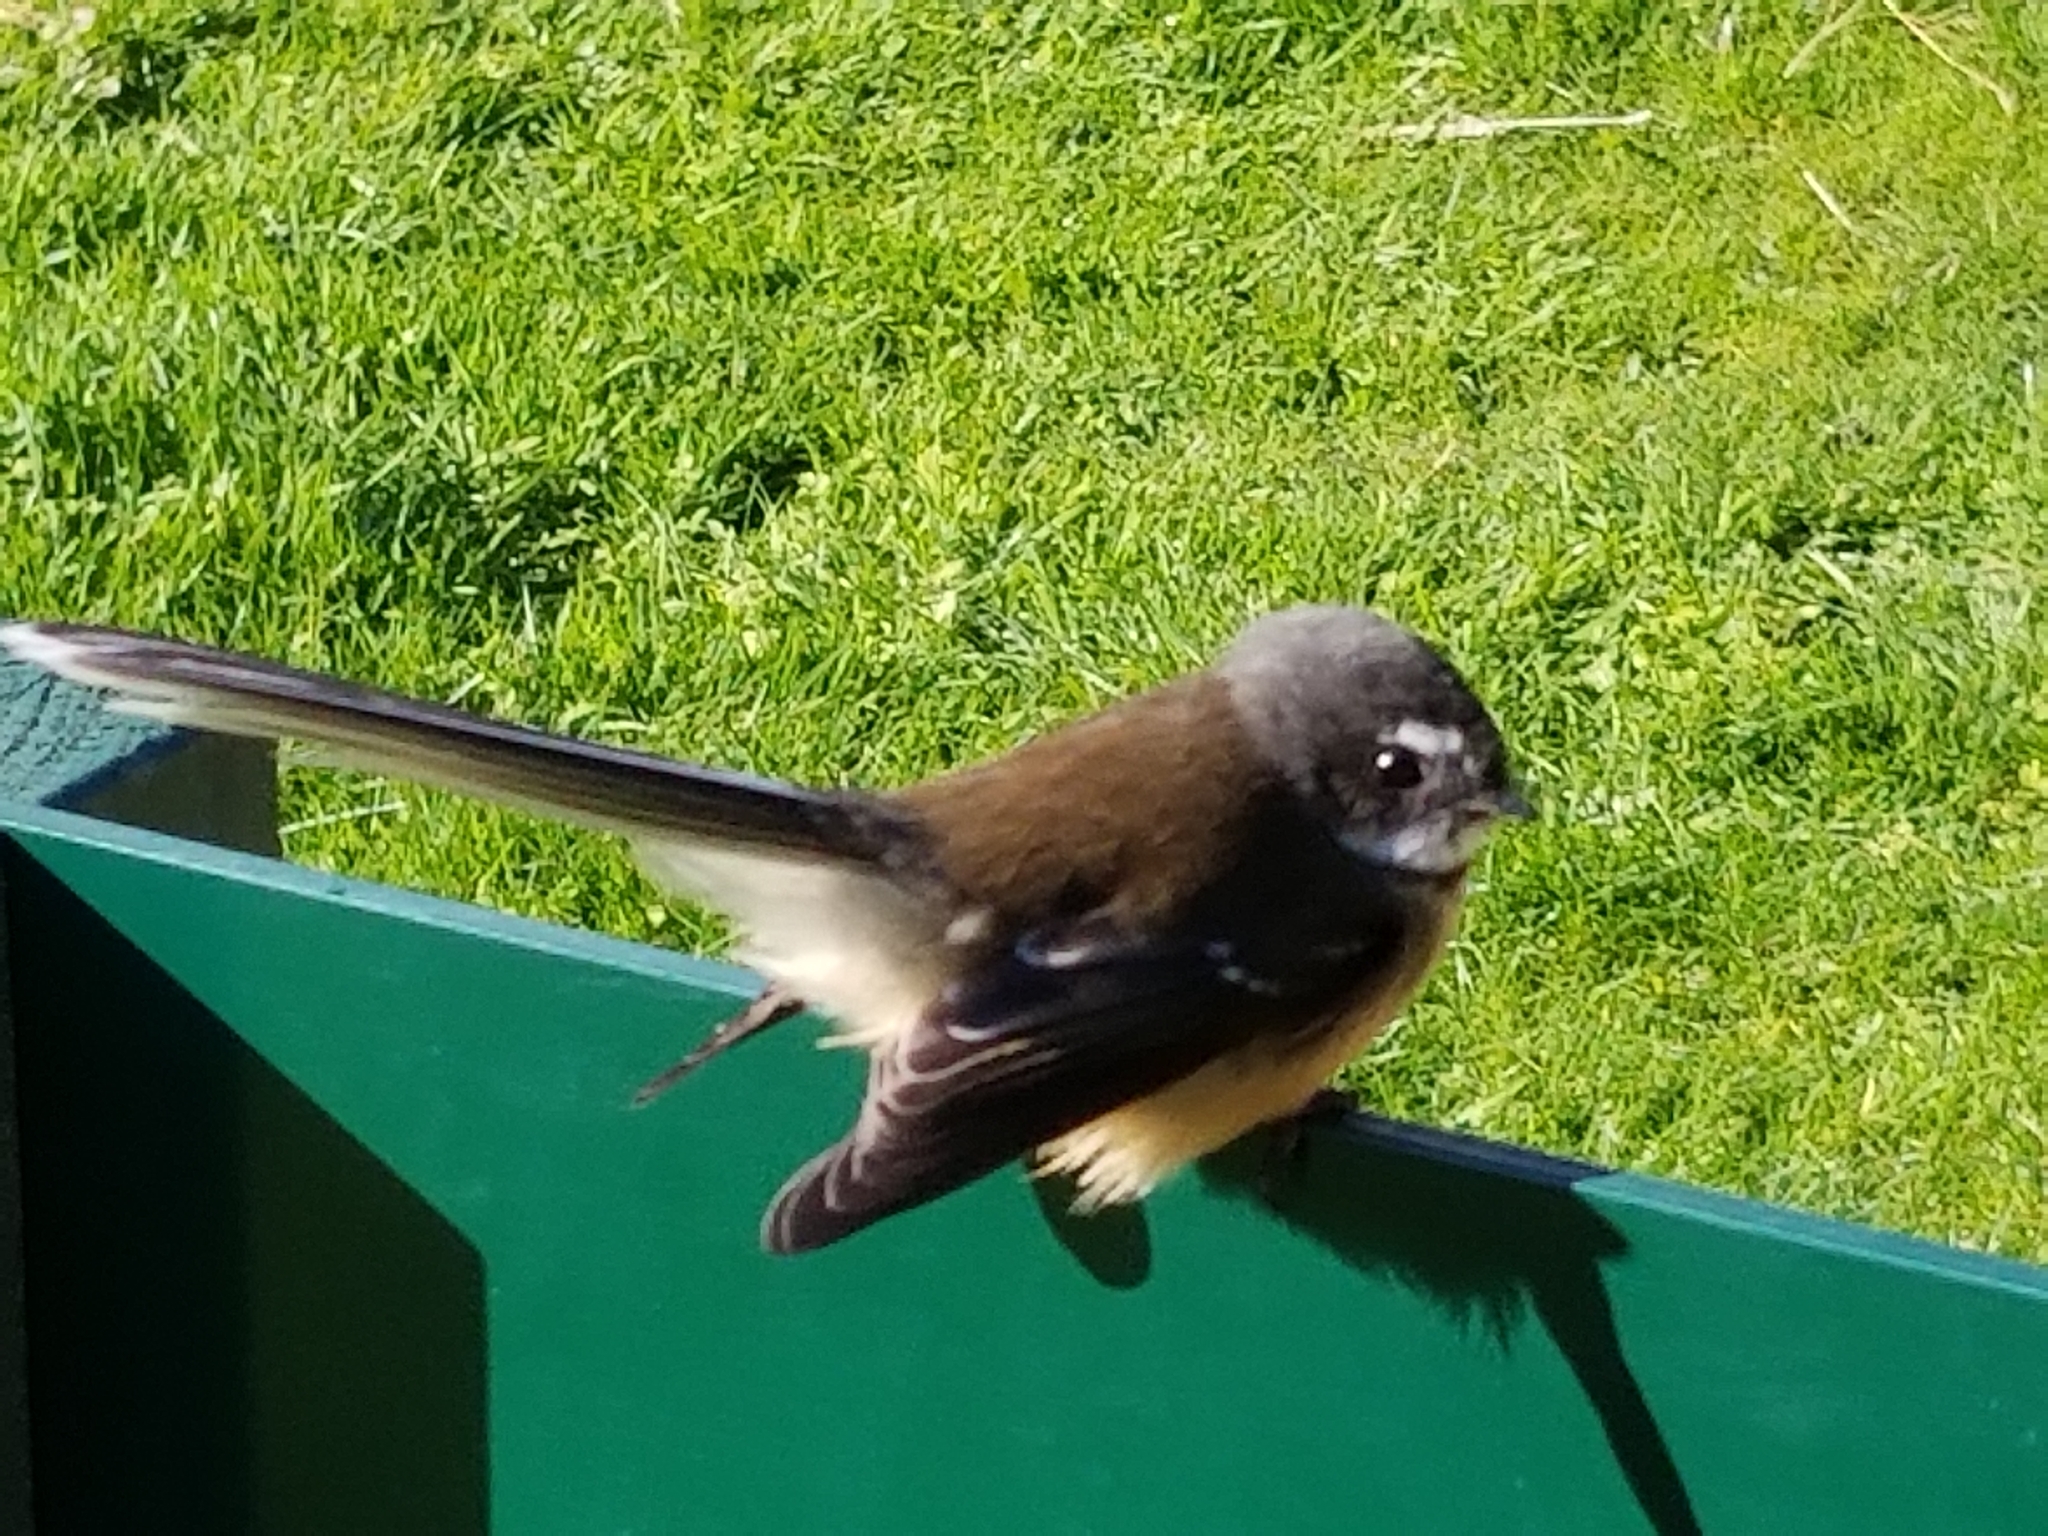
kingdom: Animalia
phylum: Chordata
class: Aves
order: Passeriformes
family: Rhipiduridae
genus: Rhipidura
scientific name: Rhipidura fuliginosa
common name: New zealand fantail
